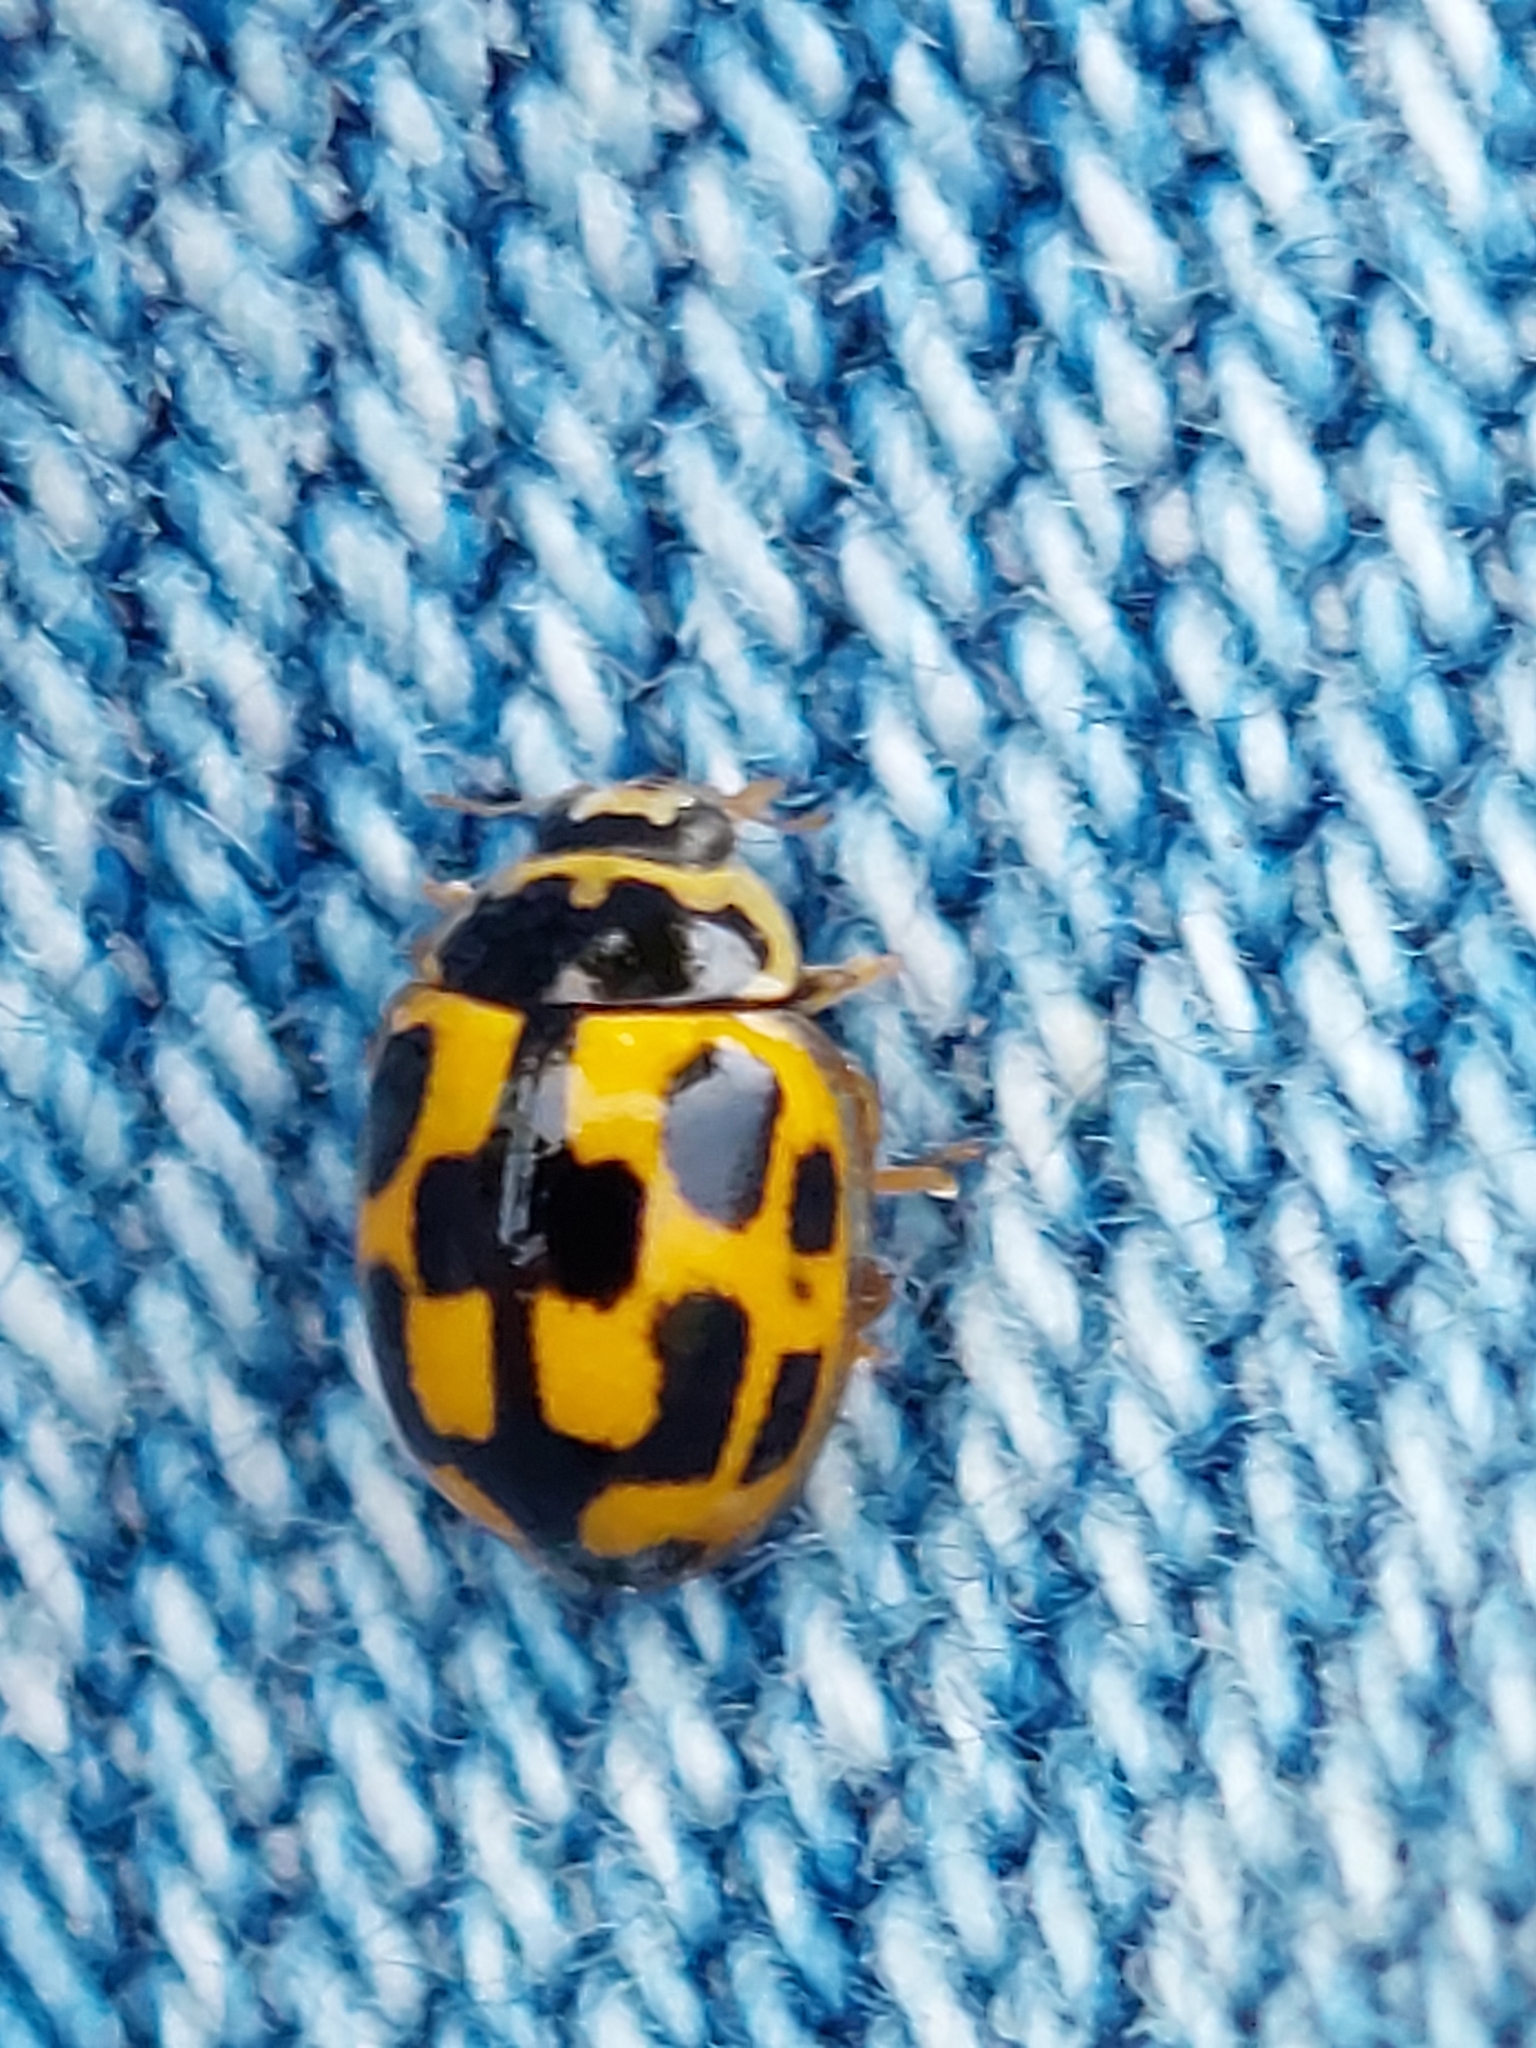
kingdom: Animalia
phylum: Arthropoda
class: Insecta
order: Coleoptera
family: Coccinellidae
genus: Propylaea
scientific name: Propylaea quatuordecimpunctata
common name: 14-spotted ladybird beetle
